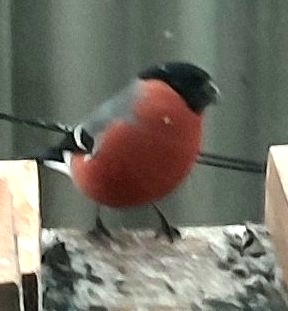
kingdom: Animalia
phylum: Chordata
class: Aves
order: Passeriformes
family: Fringillidae
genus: Pyrrhula
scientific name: Pyrrhula pyrrhula
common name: Eurasian bullfinch
